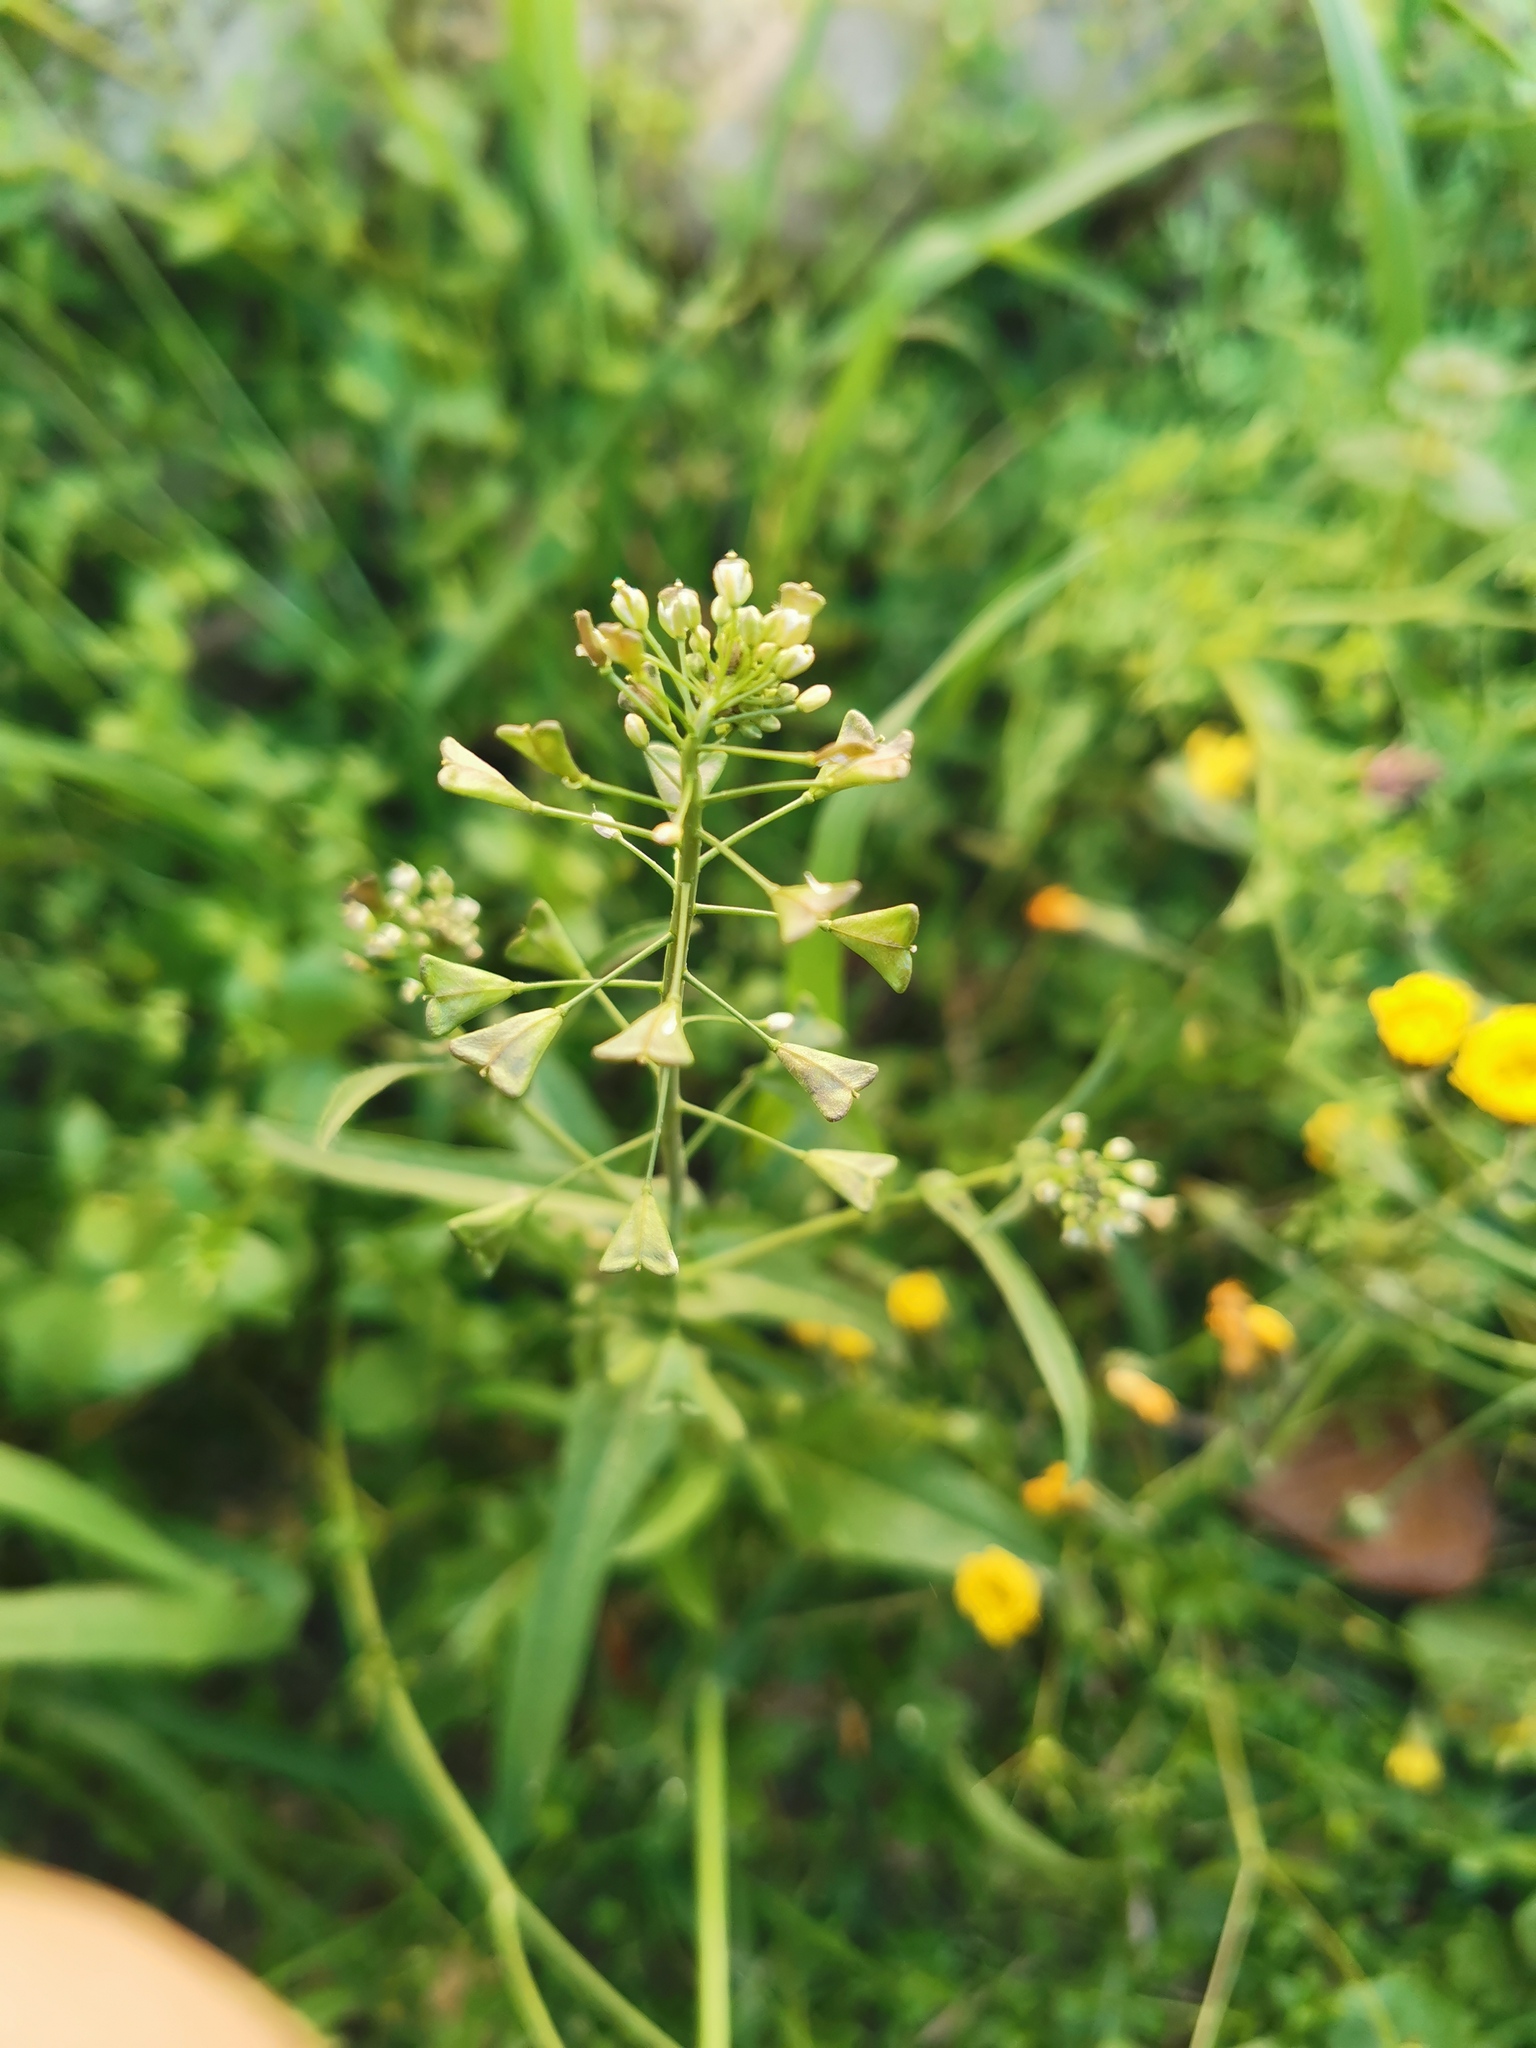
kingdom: Plantae
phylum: Tracheophyta
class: Magnoliopsida
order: Brassicales
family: Brassicaceae
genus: Capsella
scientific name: Capsella bursa-pastoris
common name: Shepherd's purse
